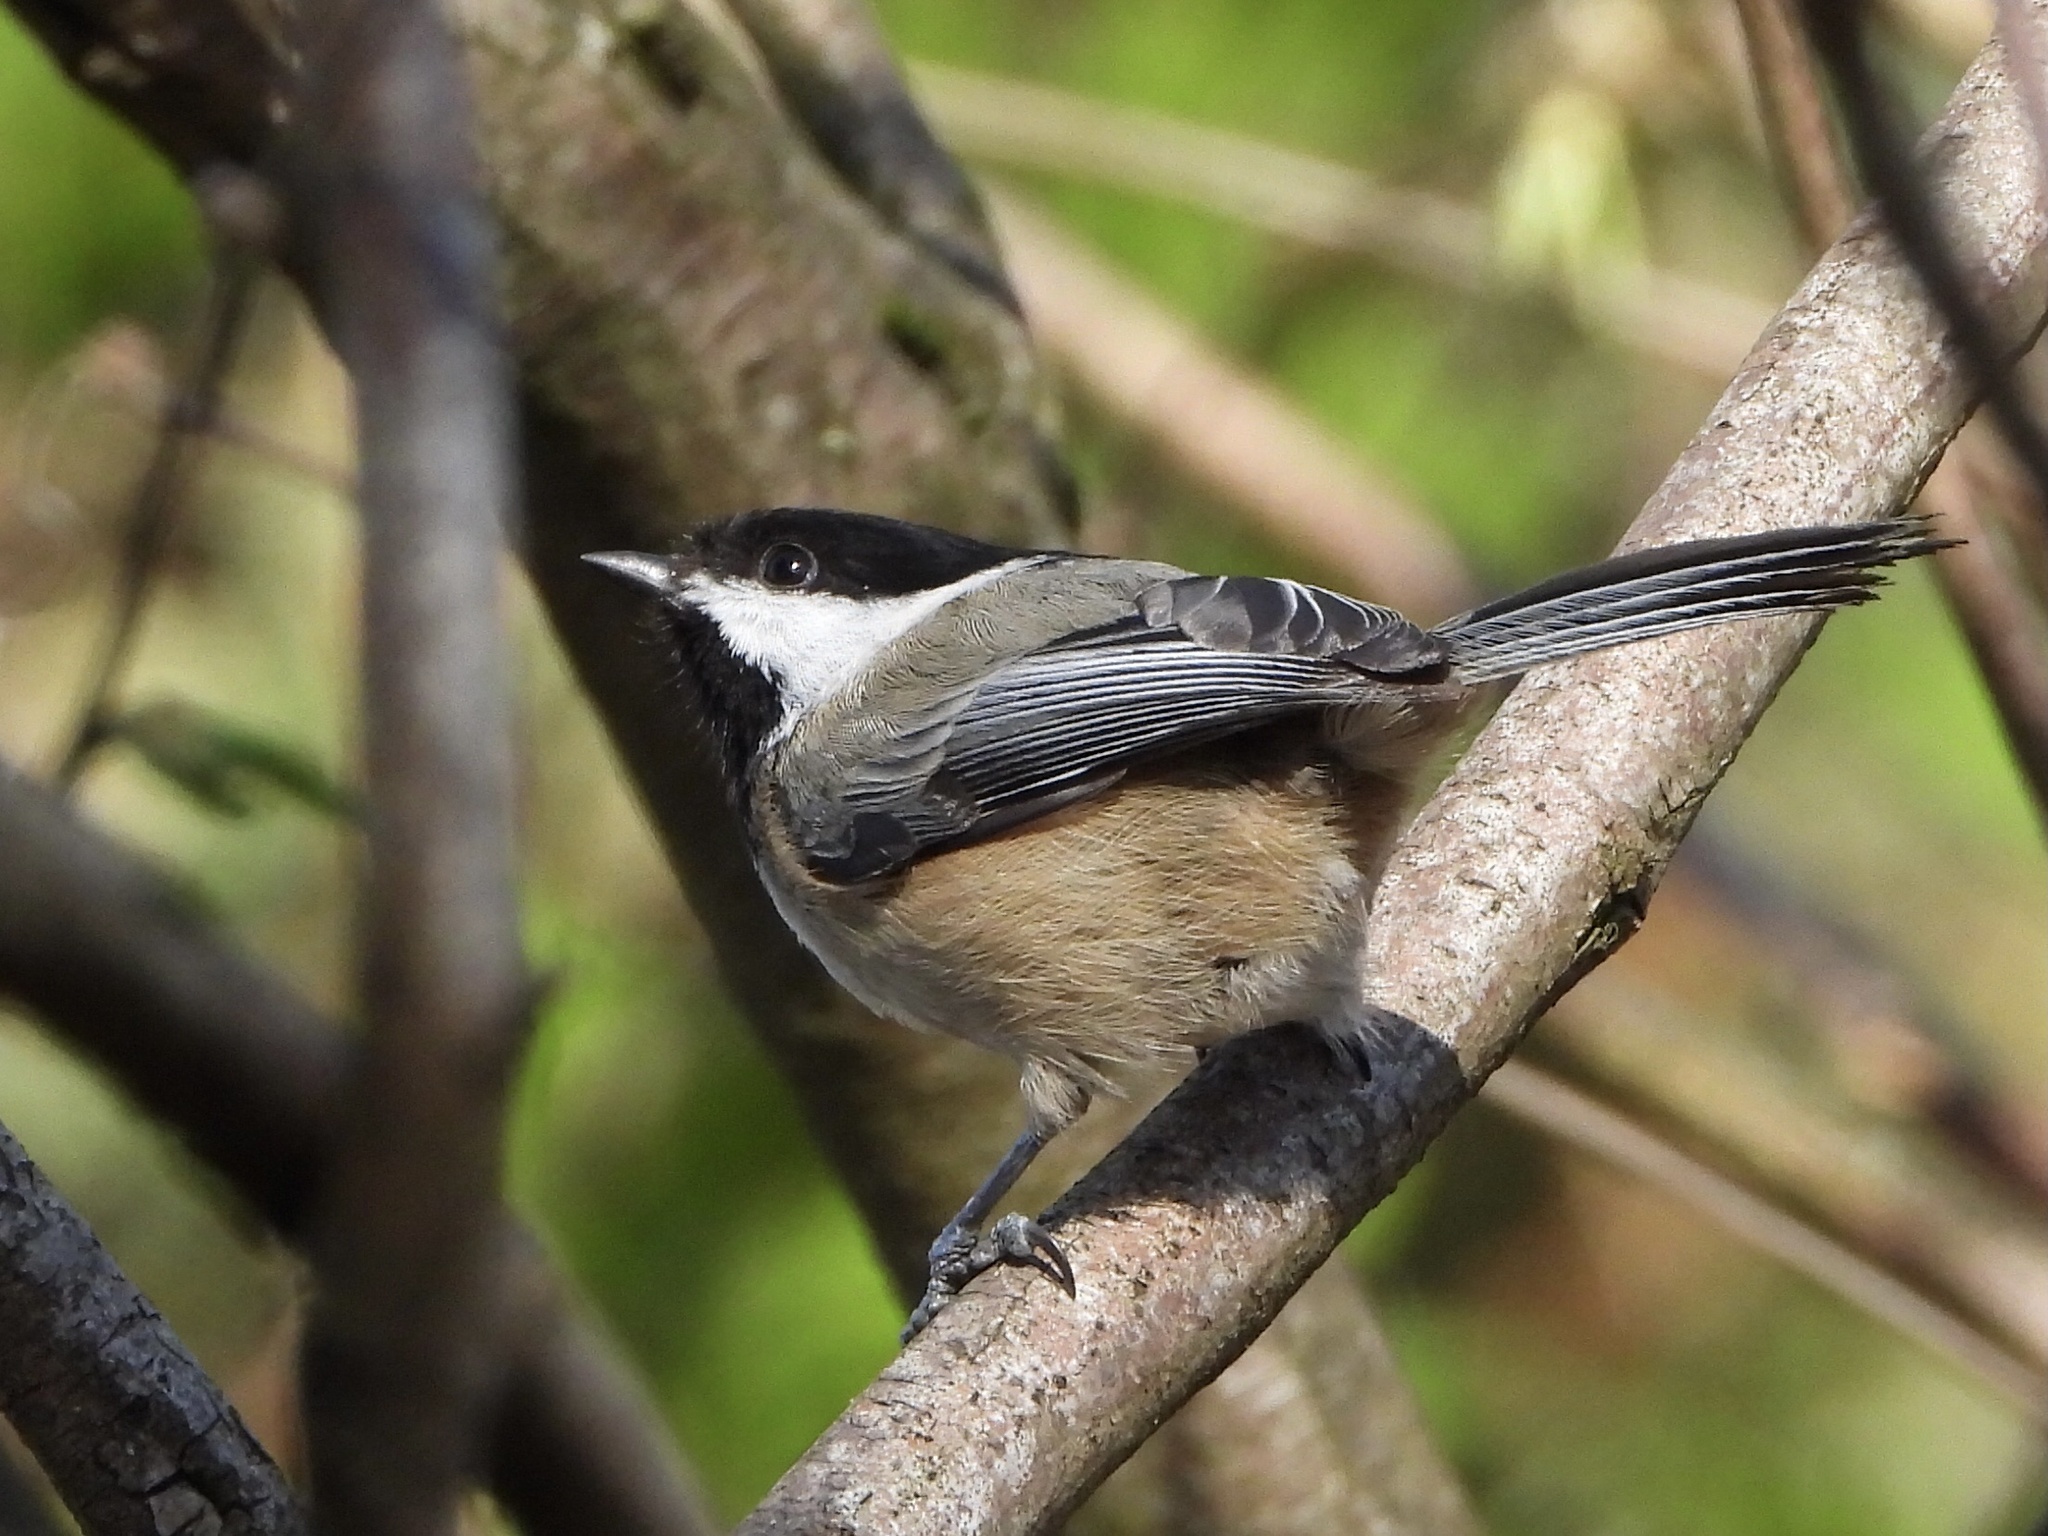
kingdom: Animalia
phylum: Chordata
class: Aves
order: Passeriformes
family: Paridae
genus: Poecile
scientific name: Poecile atricapillus
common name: Black-capped chickadee
